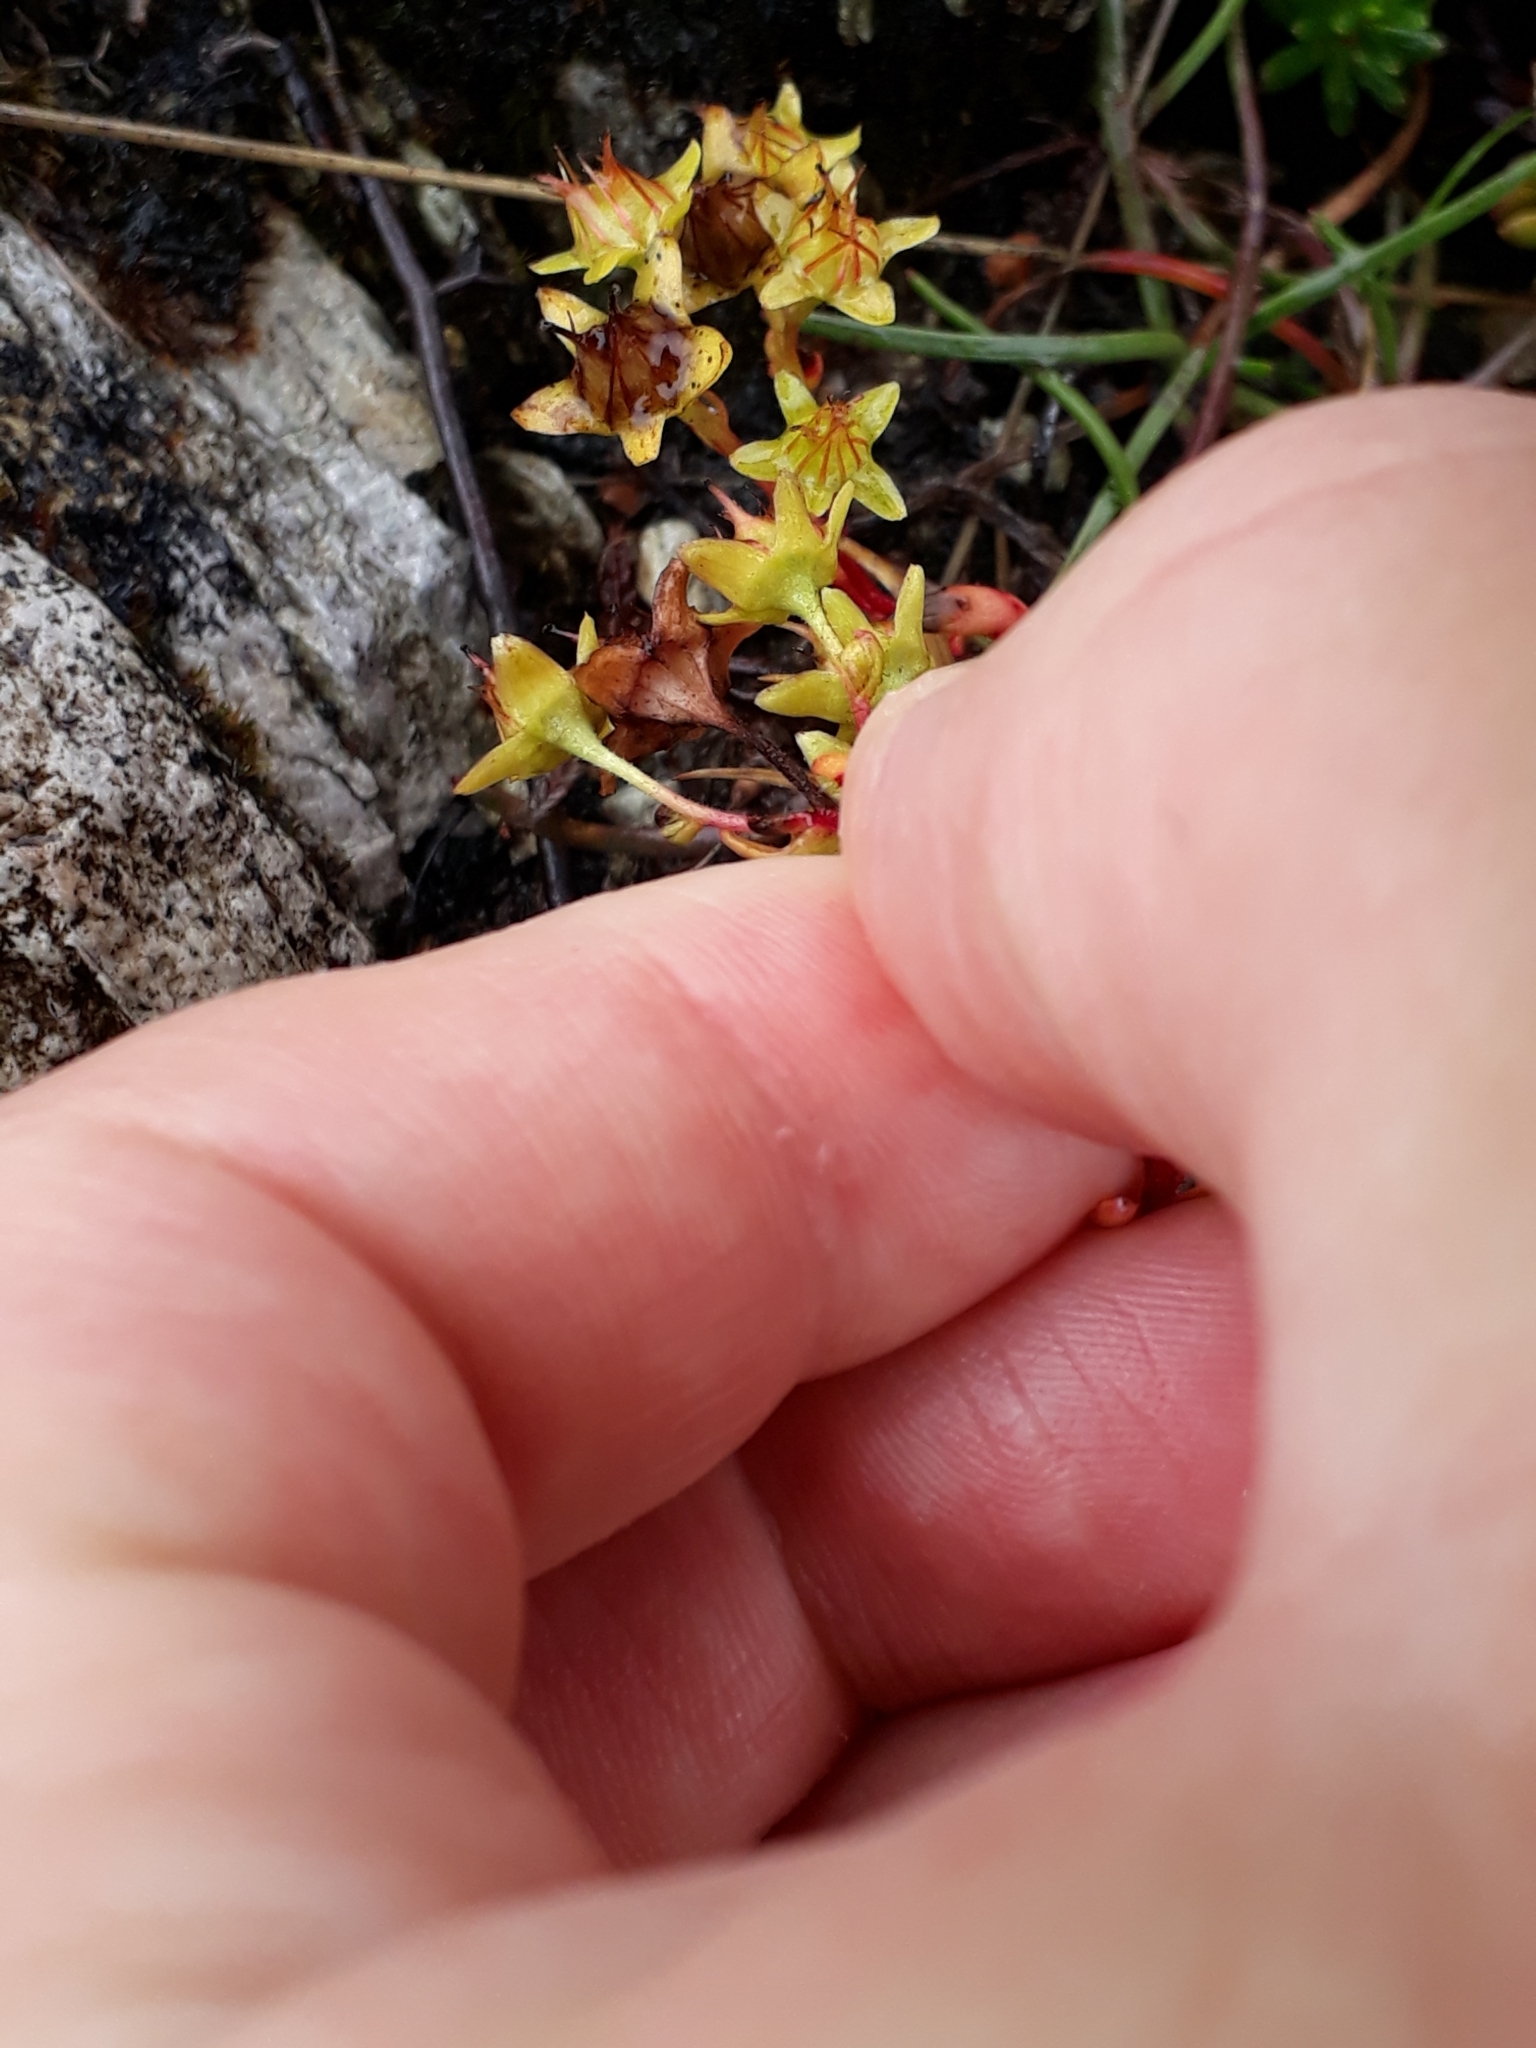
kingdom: Plantae
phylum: Tracheophyta
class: Magnoliopsida
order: Saxifragales
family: Saxifragaceae
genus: Saxifraga
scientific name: Saxifraga aizoides
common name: Yellow mountain saxifrage
